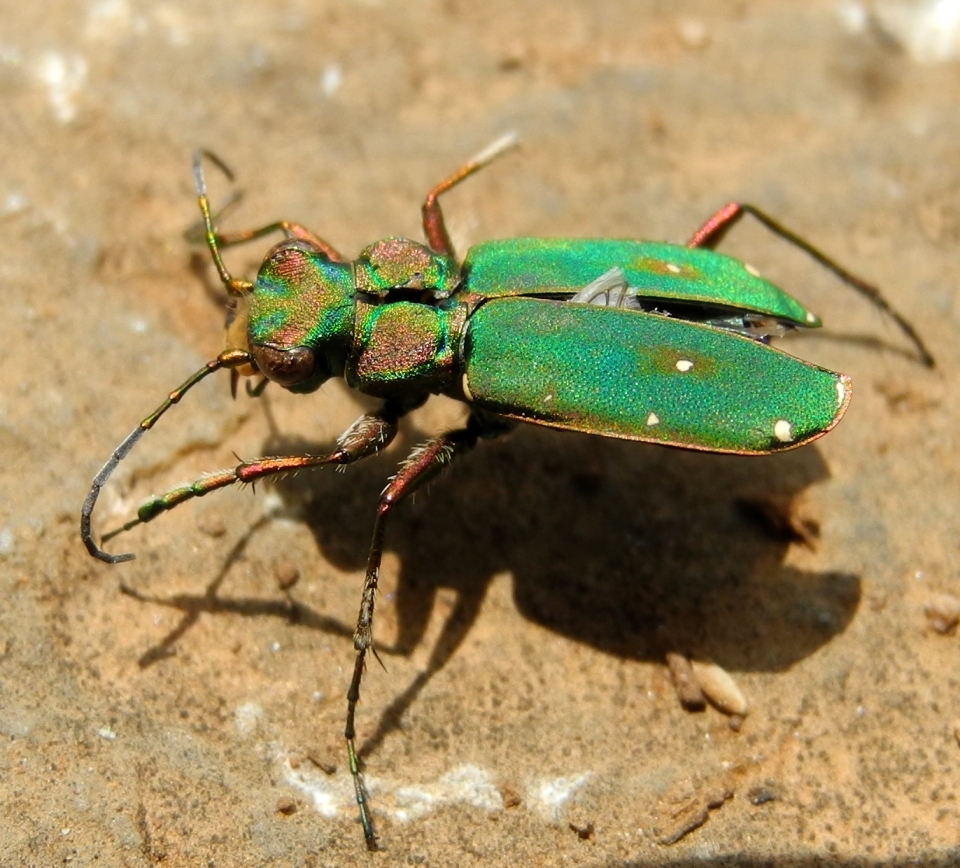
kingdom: Animalia
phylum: Arthropoda
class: Insecta
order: Coleoptera
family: Carabidae
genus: Cicindela
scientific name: Cicindela campestris
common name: Common tiger beetle
